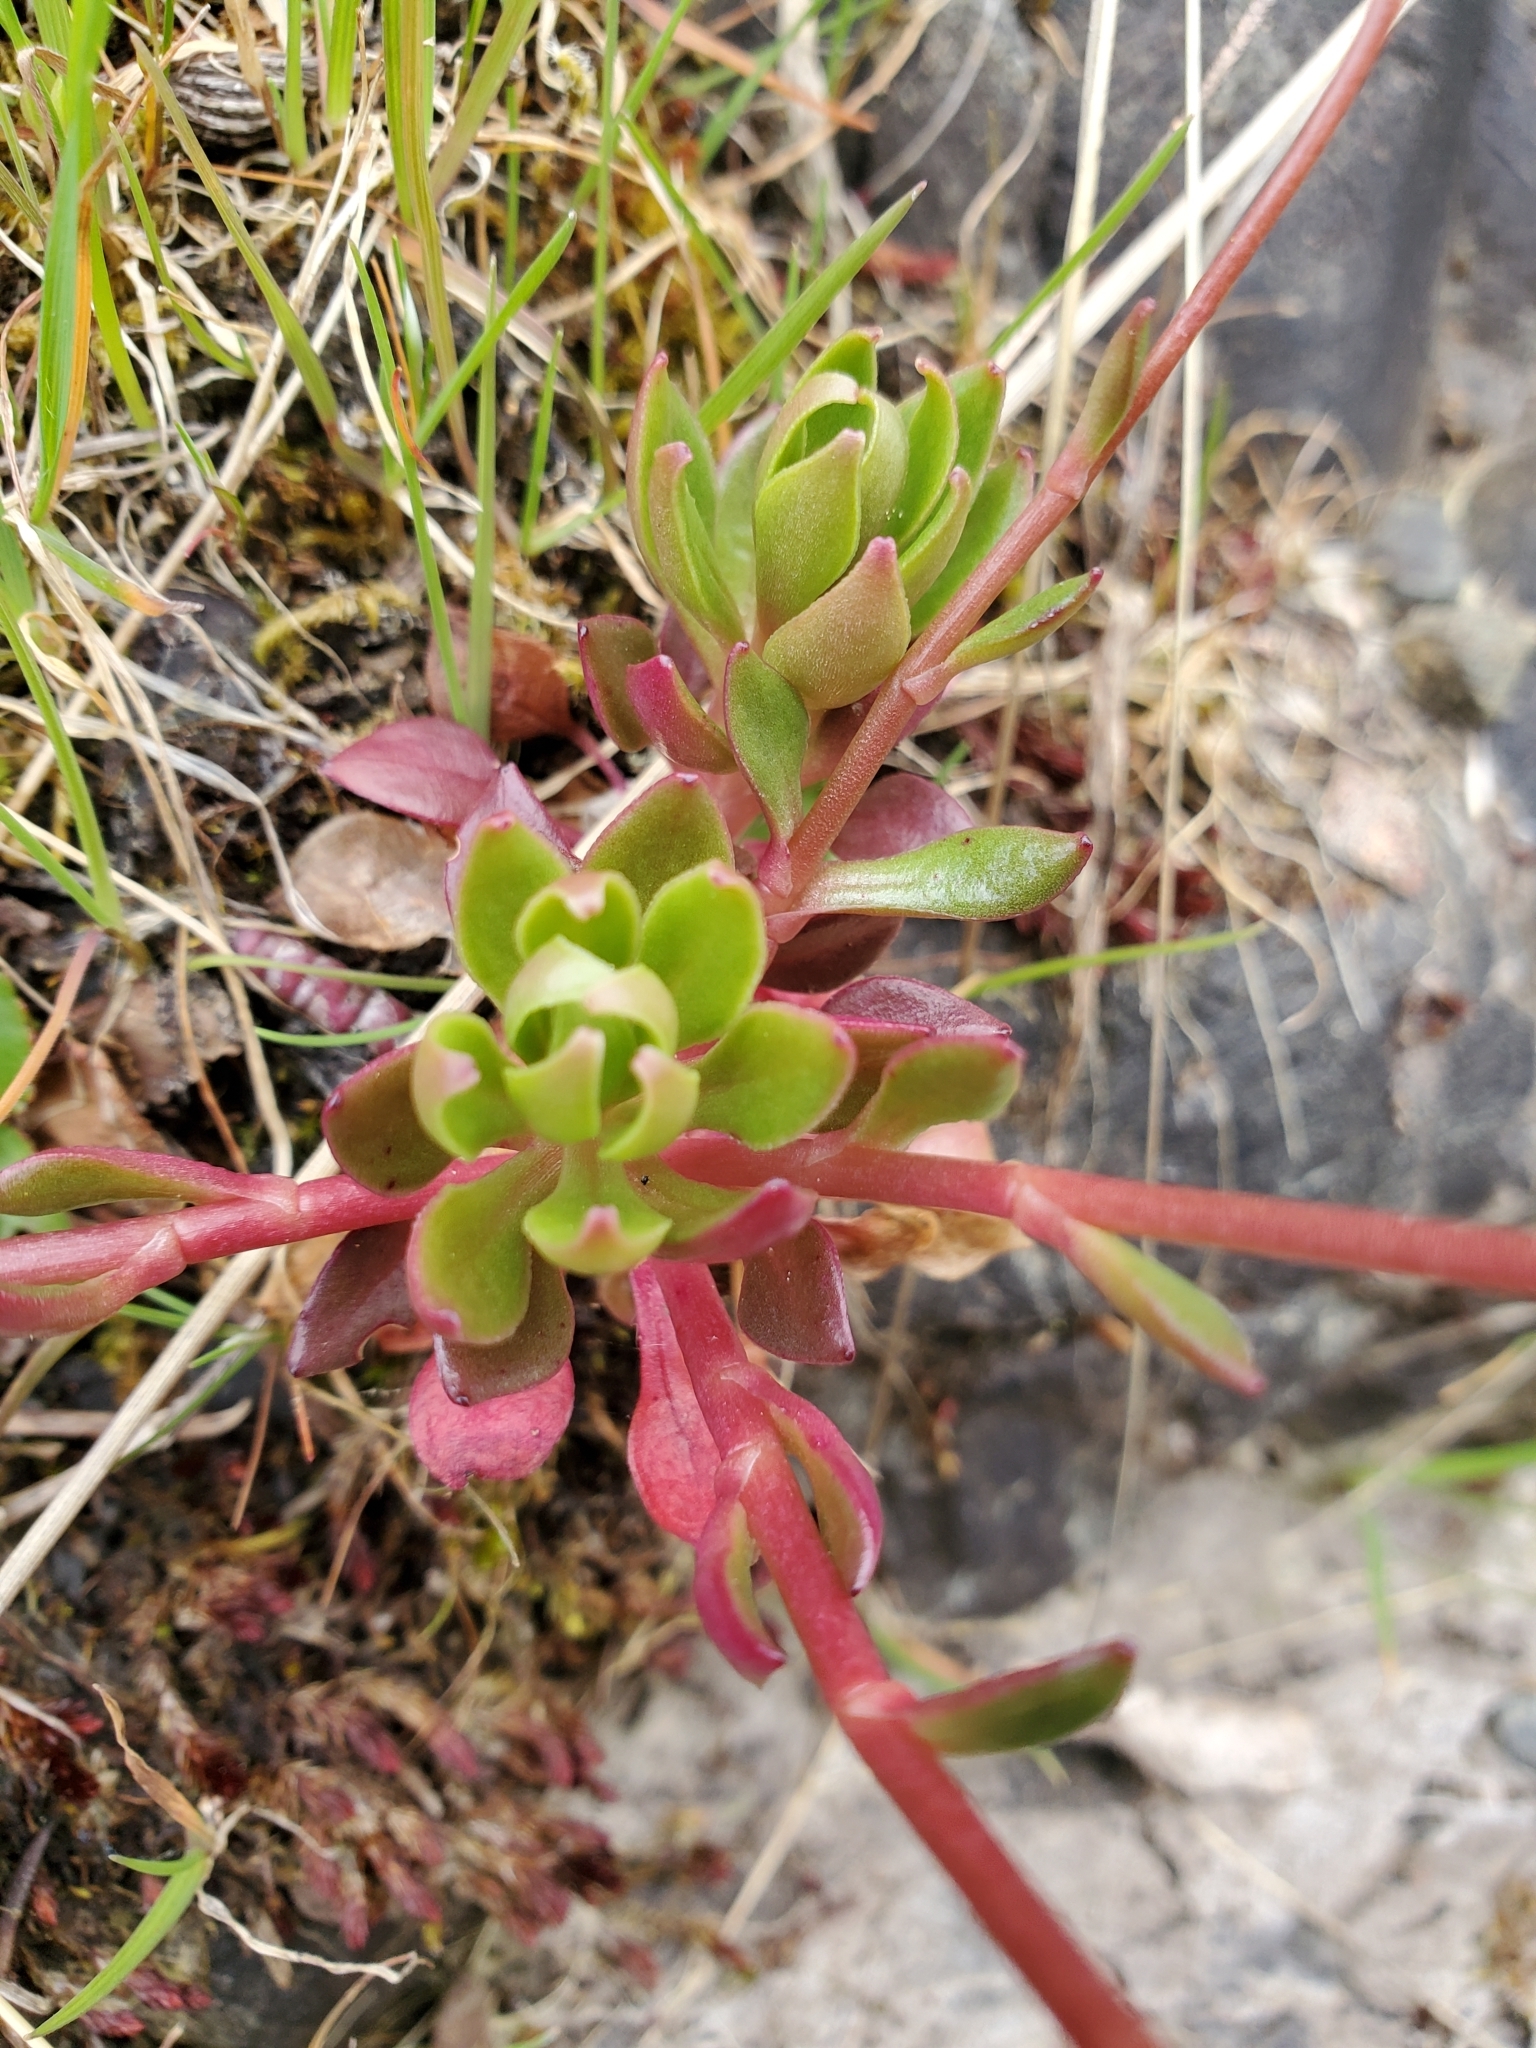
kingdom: Plantae
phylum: Tracheophyta
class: Magnoliopsida
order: Caryophyllales
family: Montiaceae
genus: Montia
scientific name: Montia parvifolia
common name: Small-leaved blinks
